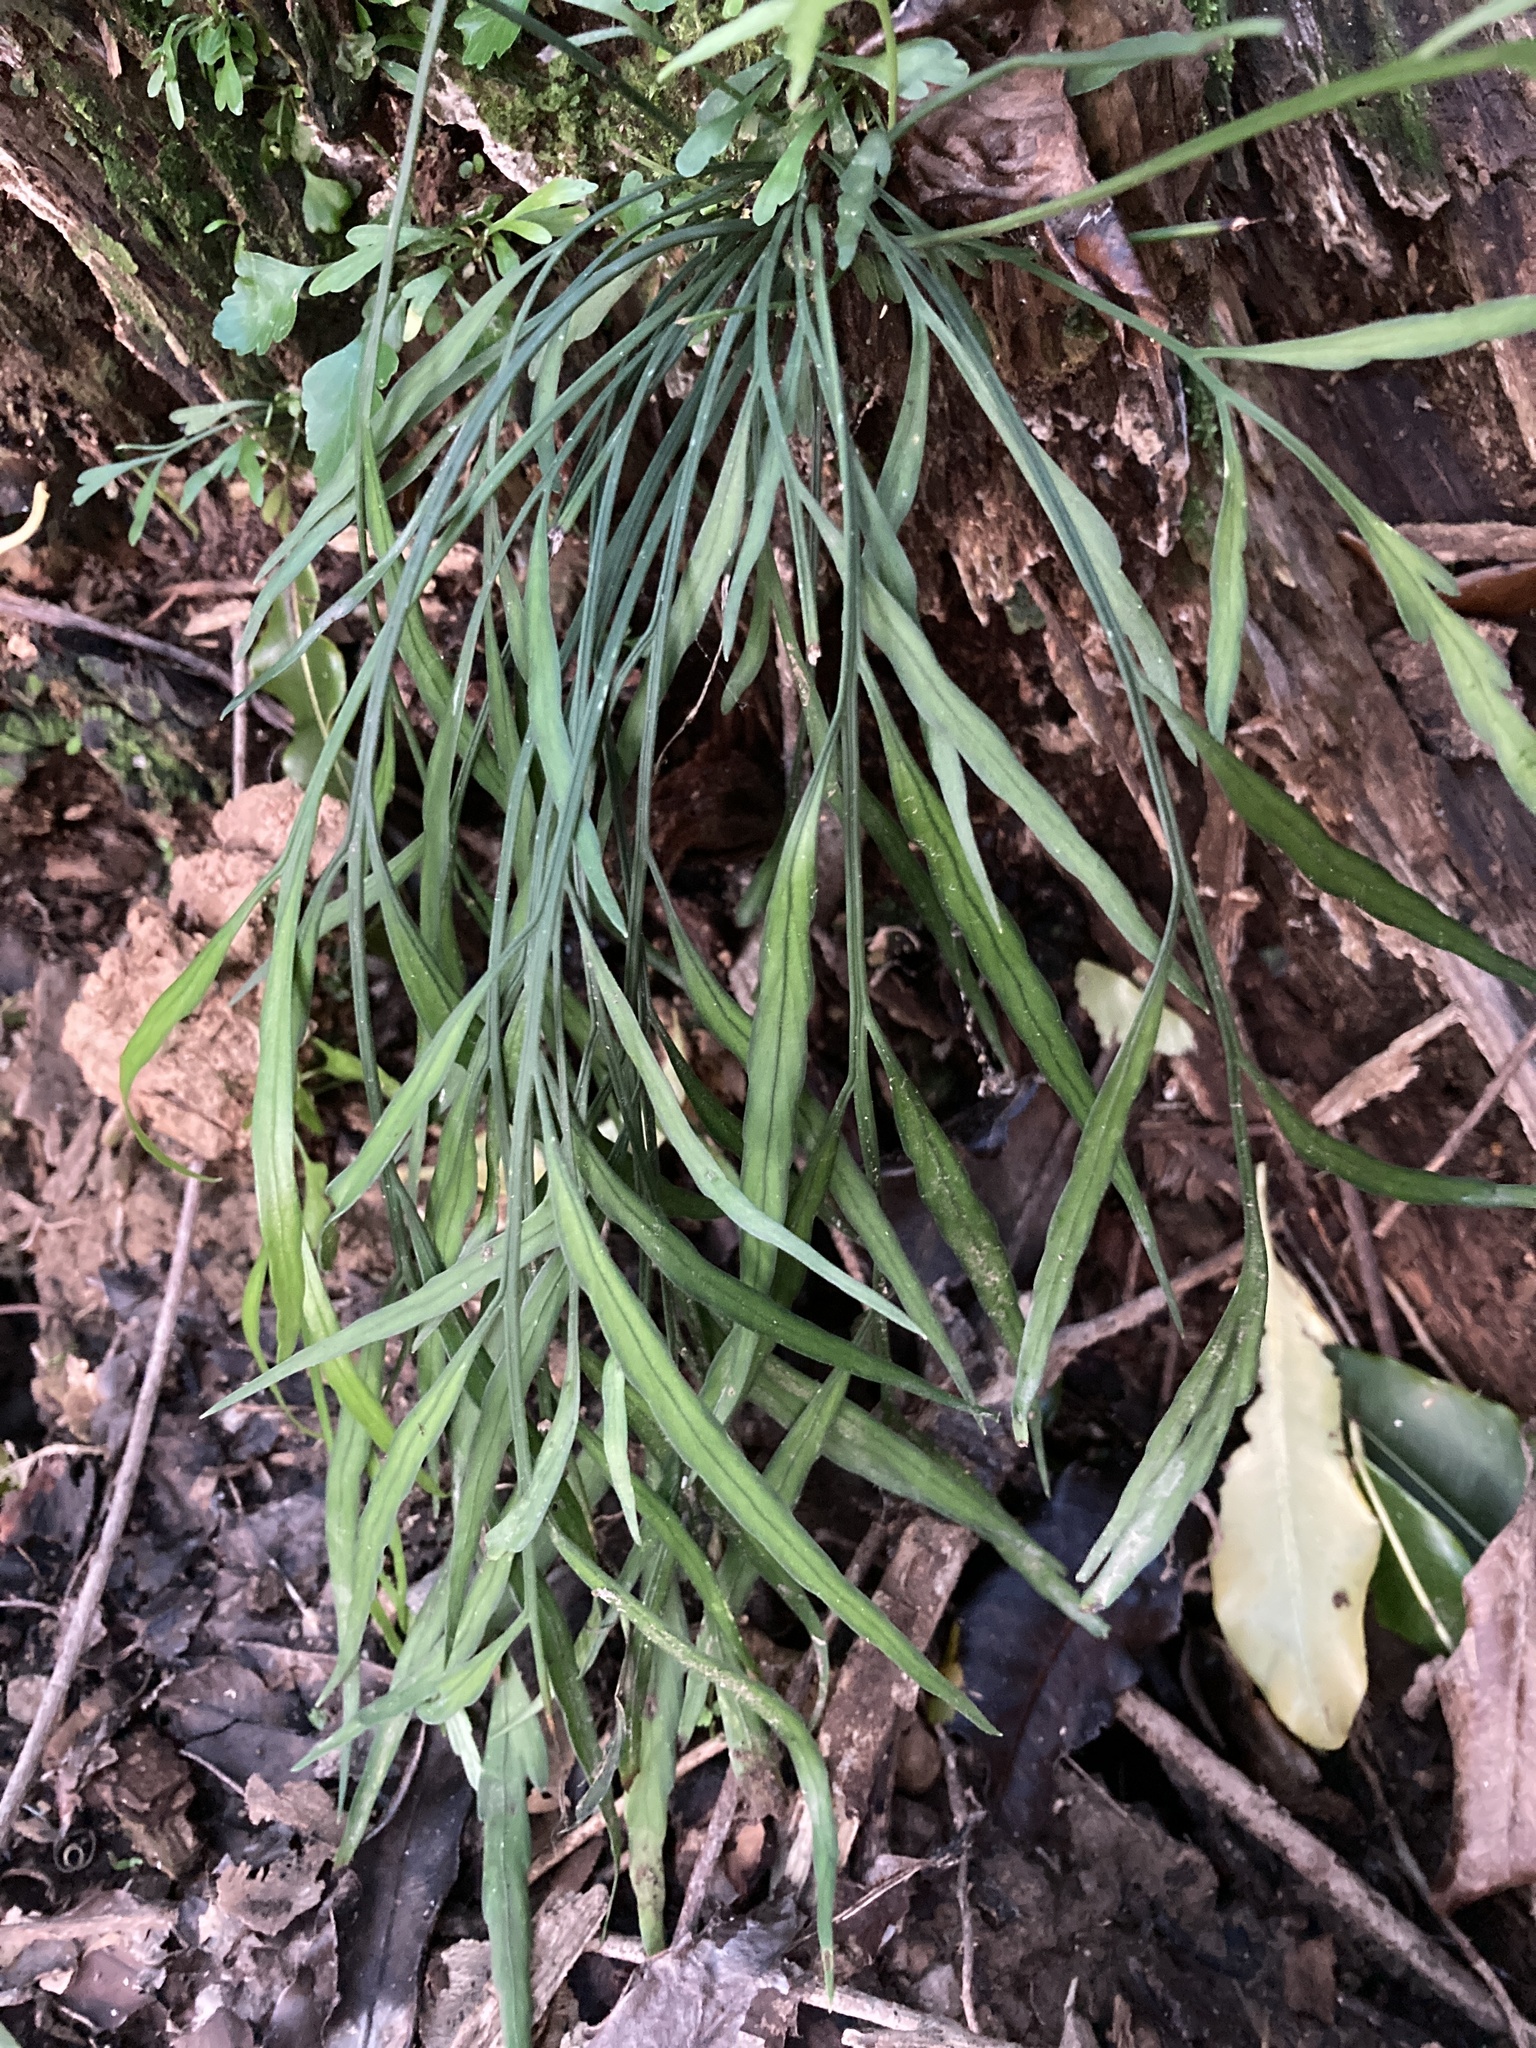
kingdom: Plantae
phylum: Tracheophyta
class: Polypodiopsida
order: Polypodiales
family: Aspleniaceae
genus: Asplenium
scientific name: Asplenium flaccidum
